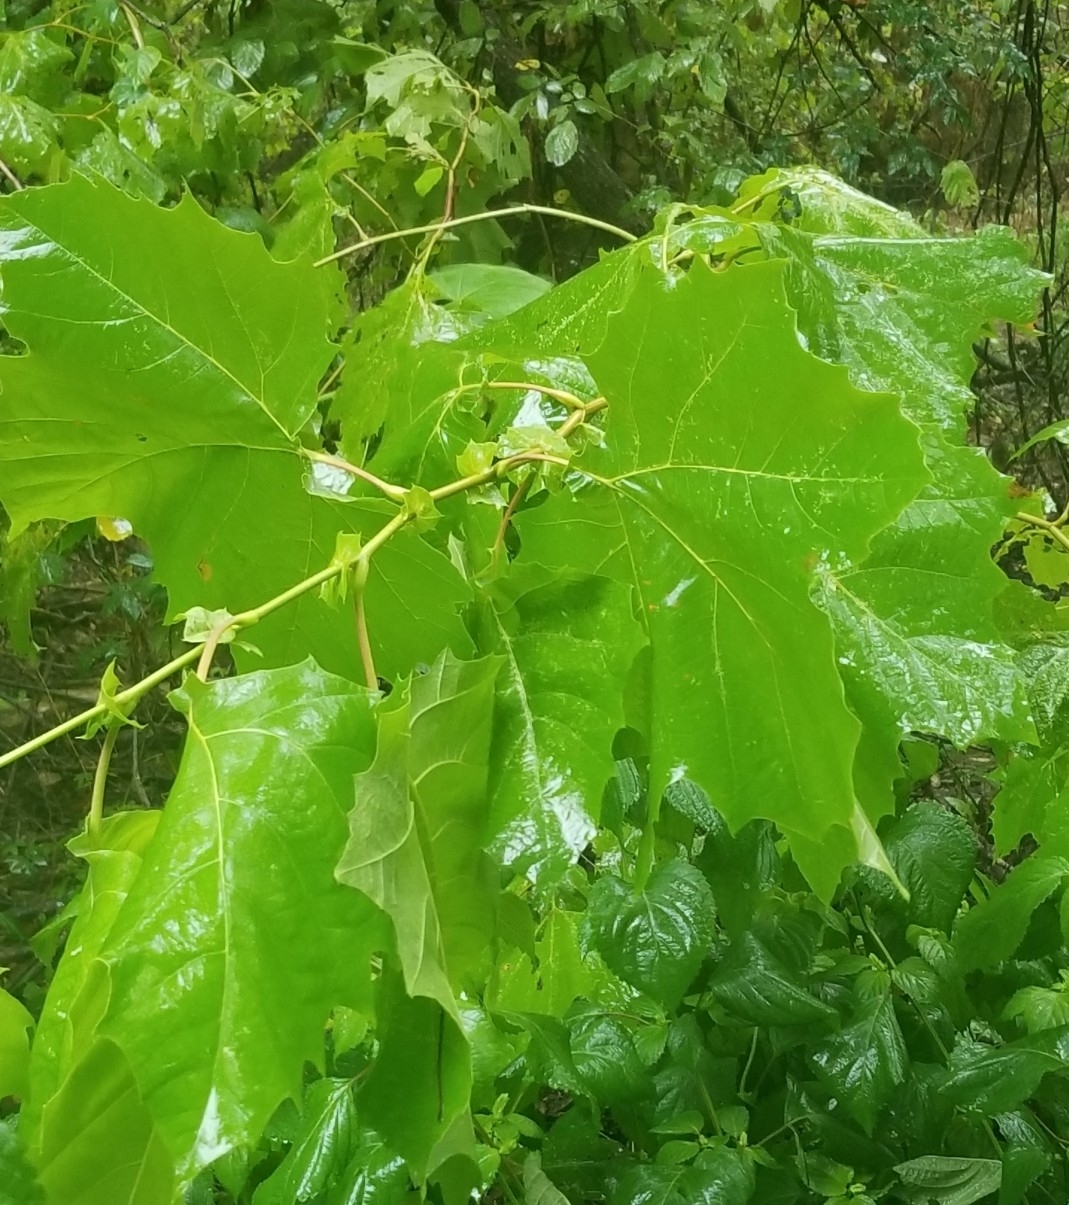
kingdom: Plantae
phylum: Tracheophyta
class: Magnoliopsida
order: Proteales
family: Platanaceae
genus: Platanus
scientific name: Platanus occidentalis
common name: American sycamore
